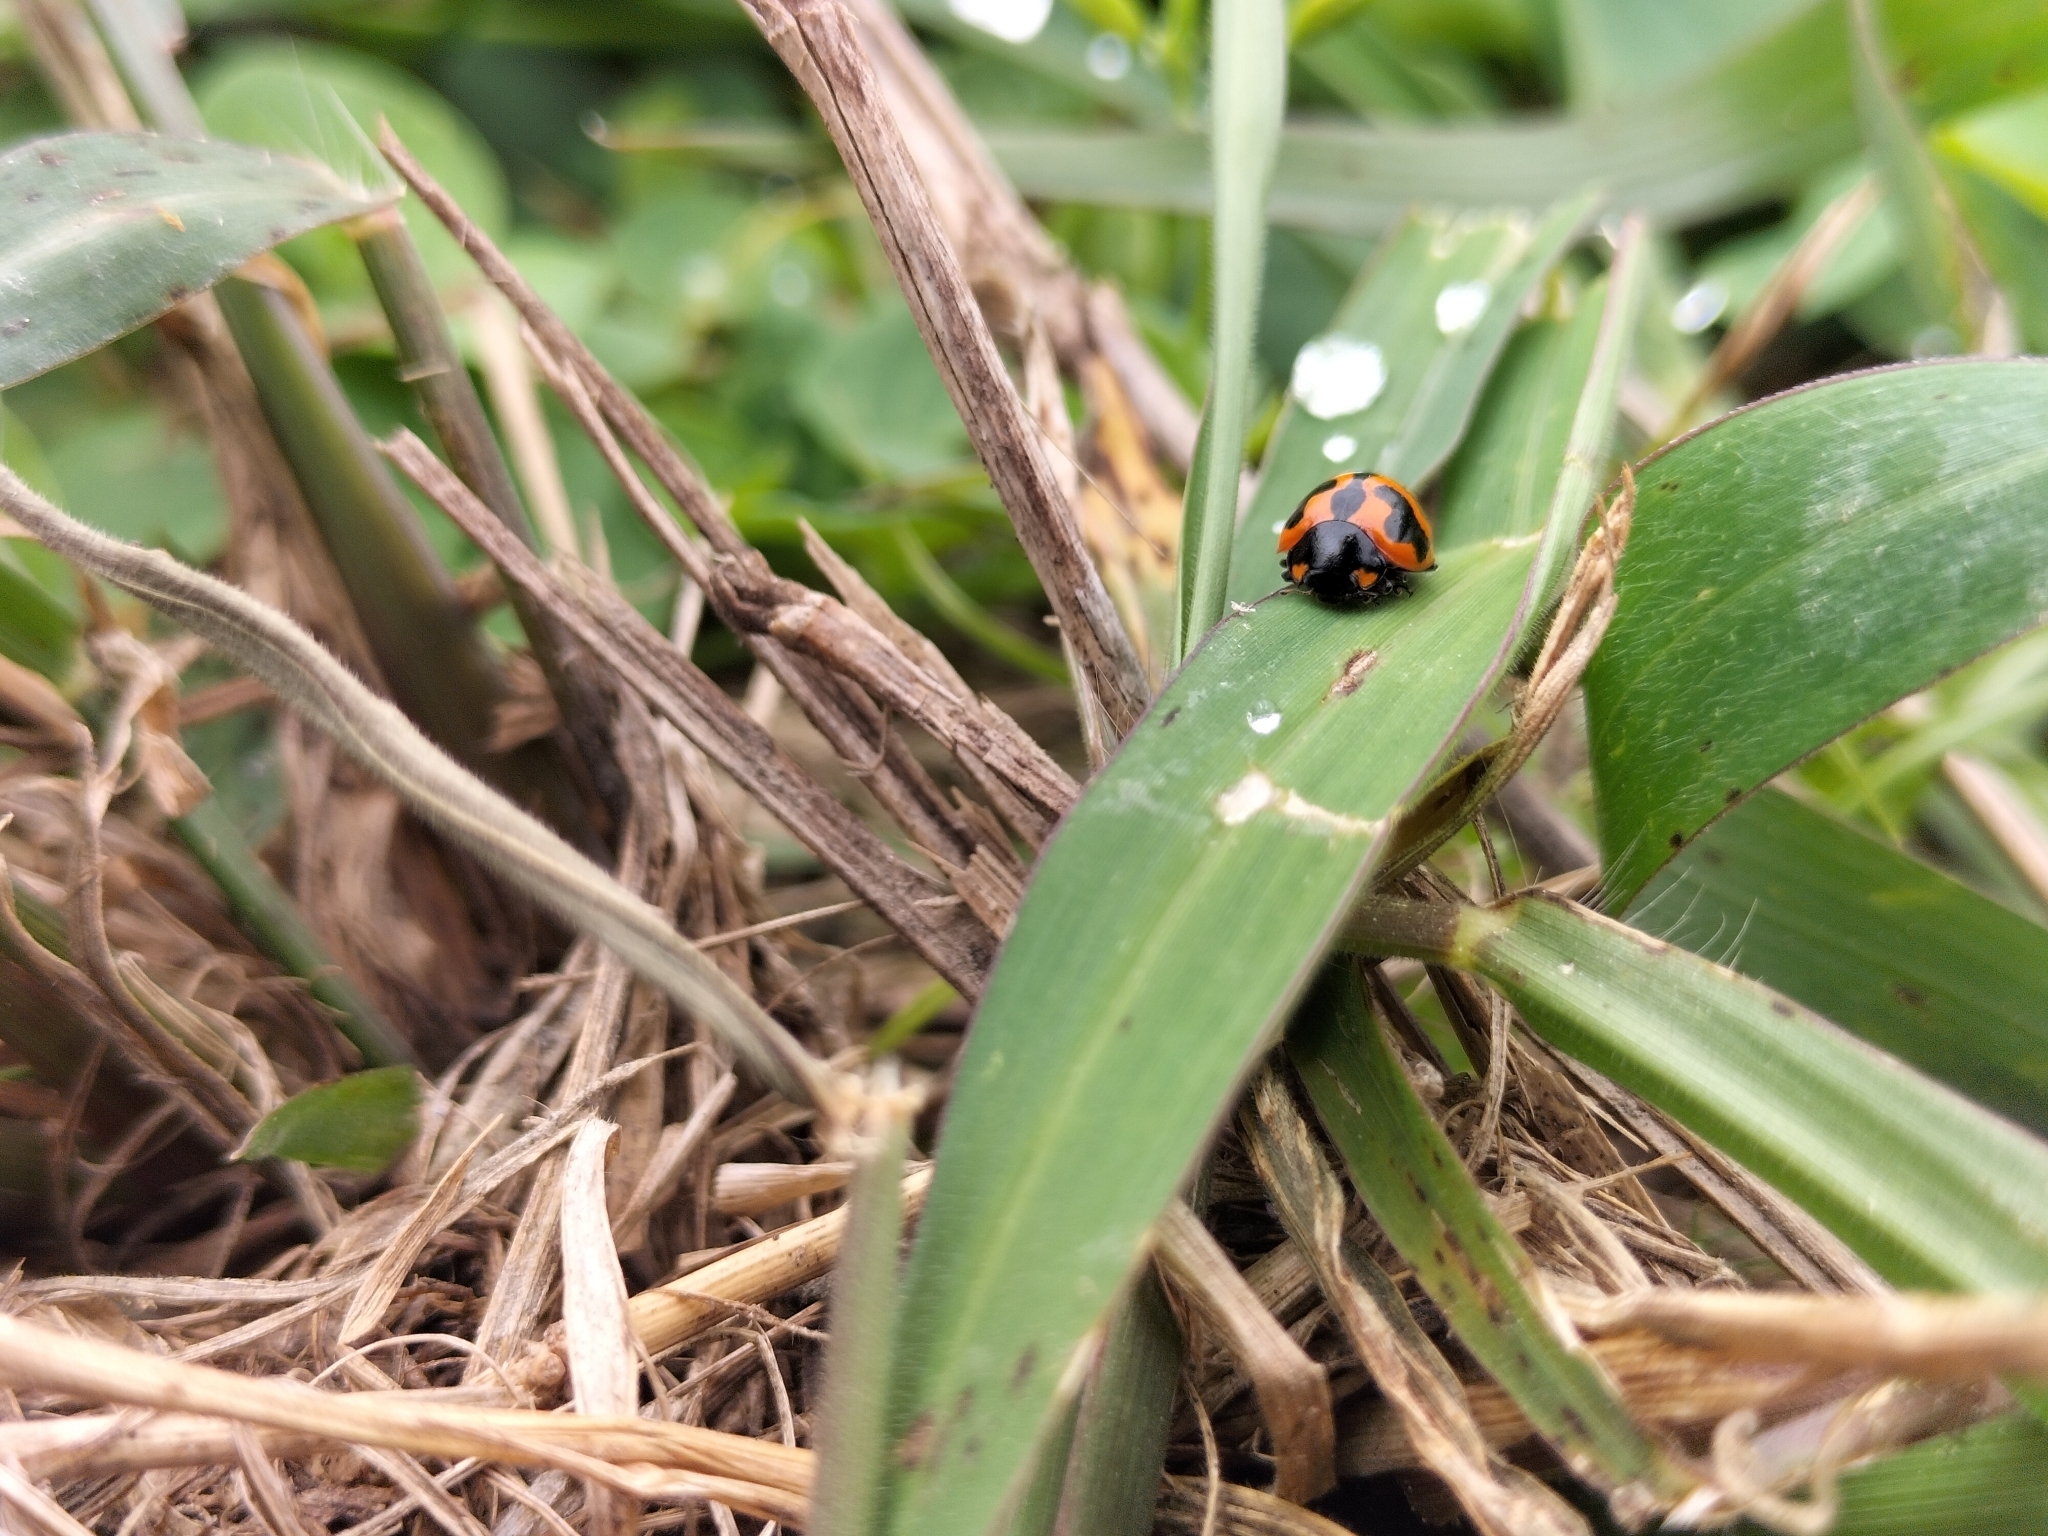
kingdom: Animalia
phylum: Arthropoda
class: Insecta
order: Coleoptera
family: Coccinellidae
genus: Coccinella
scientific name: Coccinella transversalis
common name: Transverse lady beetle
